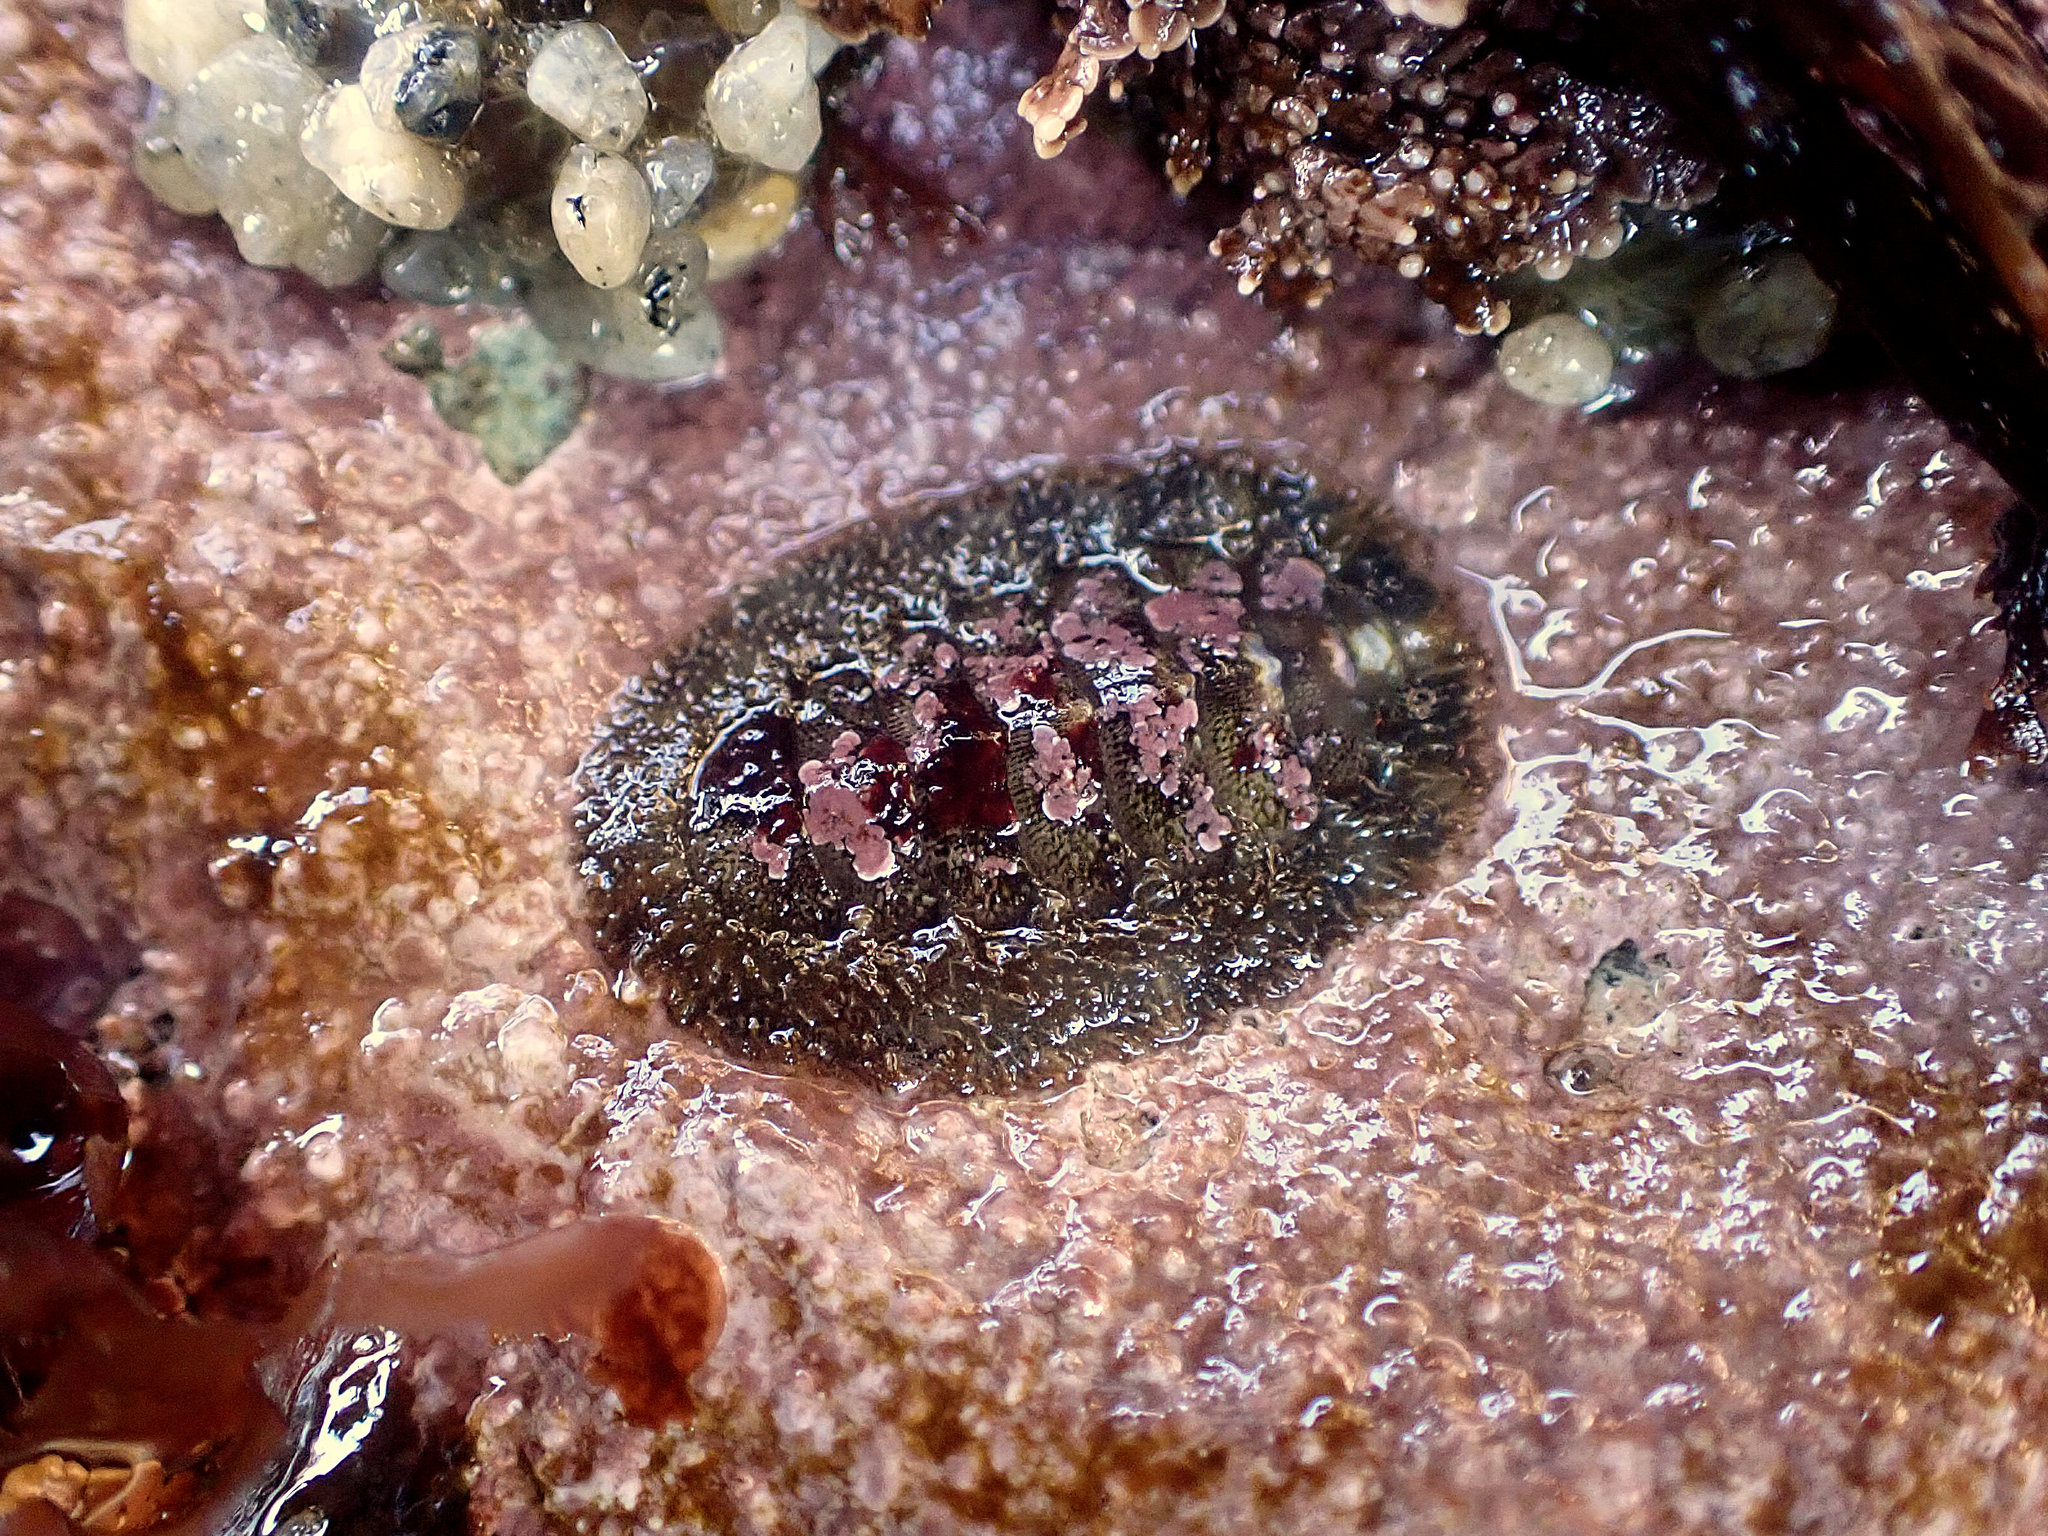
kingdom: Animalia
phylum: Mollusca
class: Polyplacophora
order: Chitonida
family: Mopaliidae
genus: Mopalia
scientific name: Mopalia muscosa
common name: Mossy chiton
